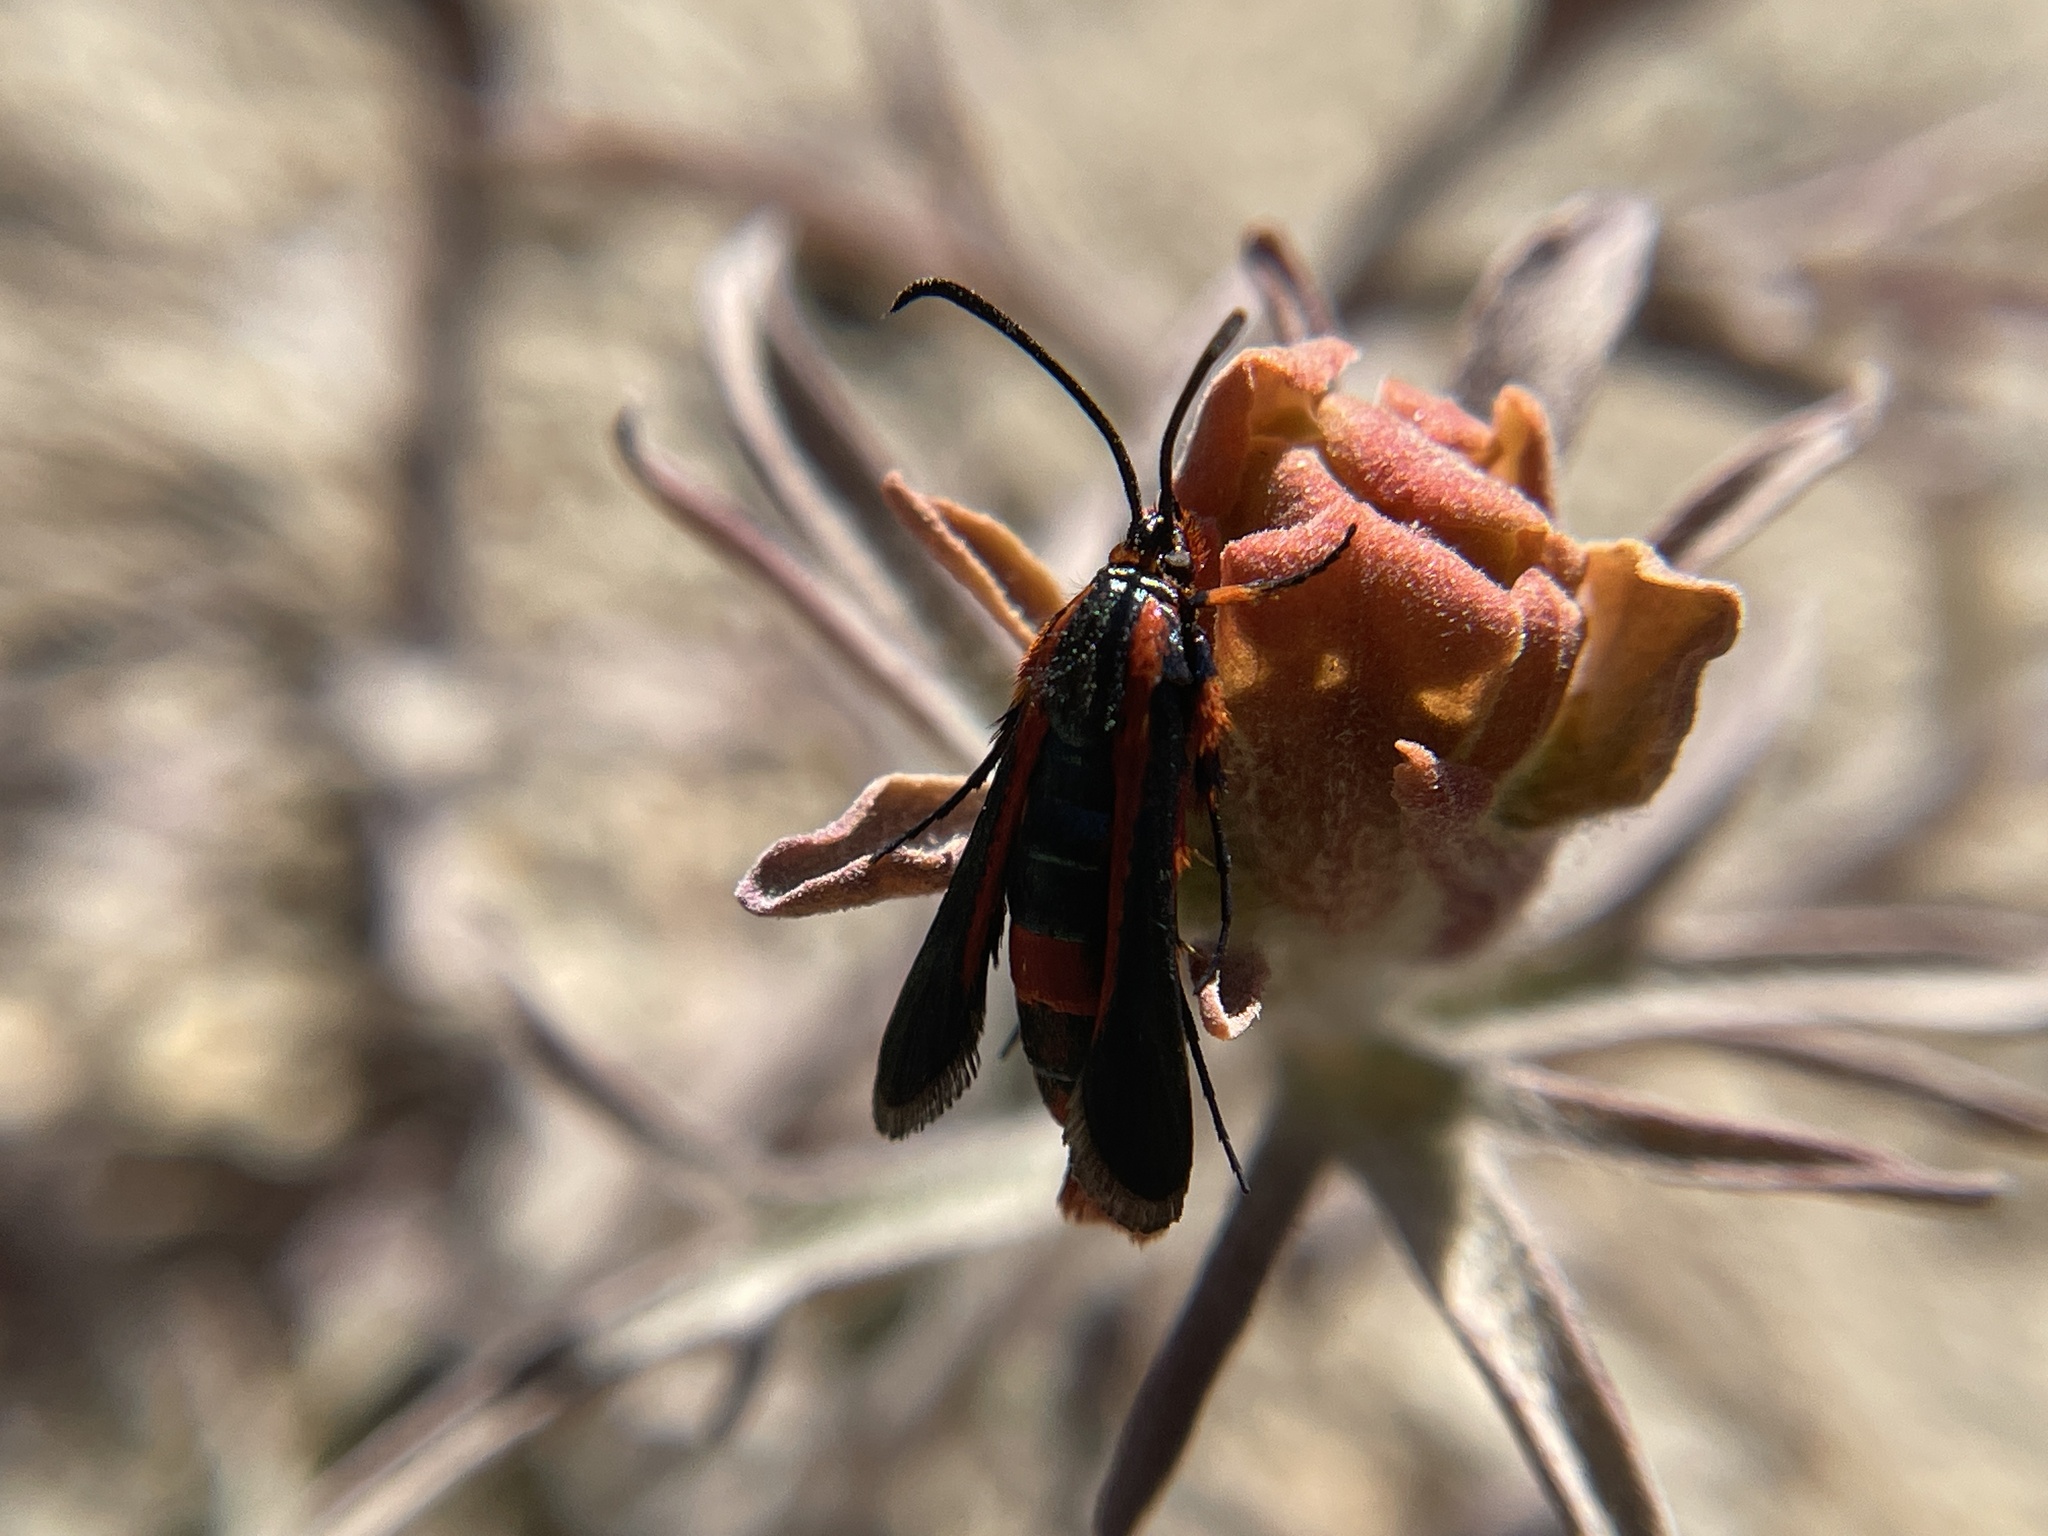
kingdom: Animalia
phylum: Arthropoda
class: Insecta
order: Lepidoptera
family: Sesiidae
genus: Synanthedon
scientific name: Synanthedon polygoni
